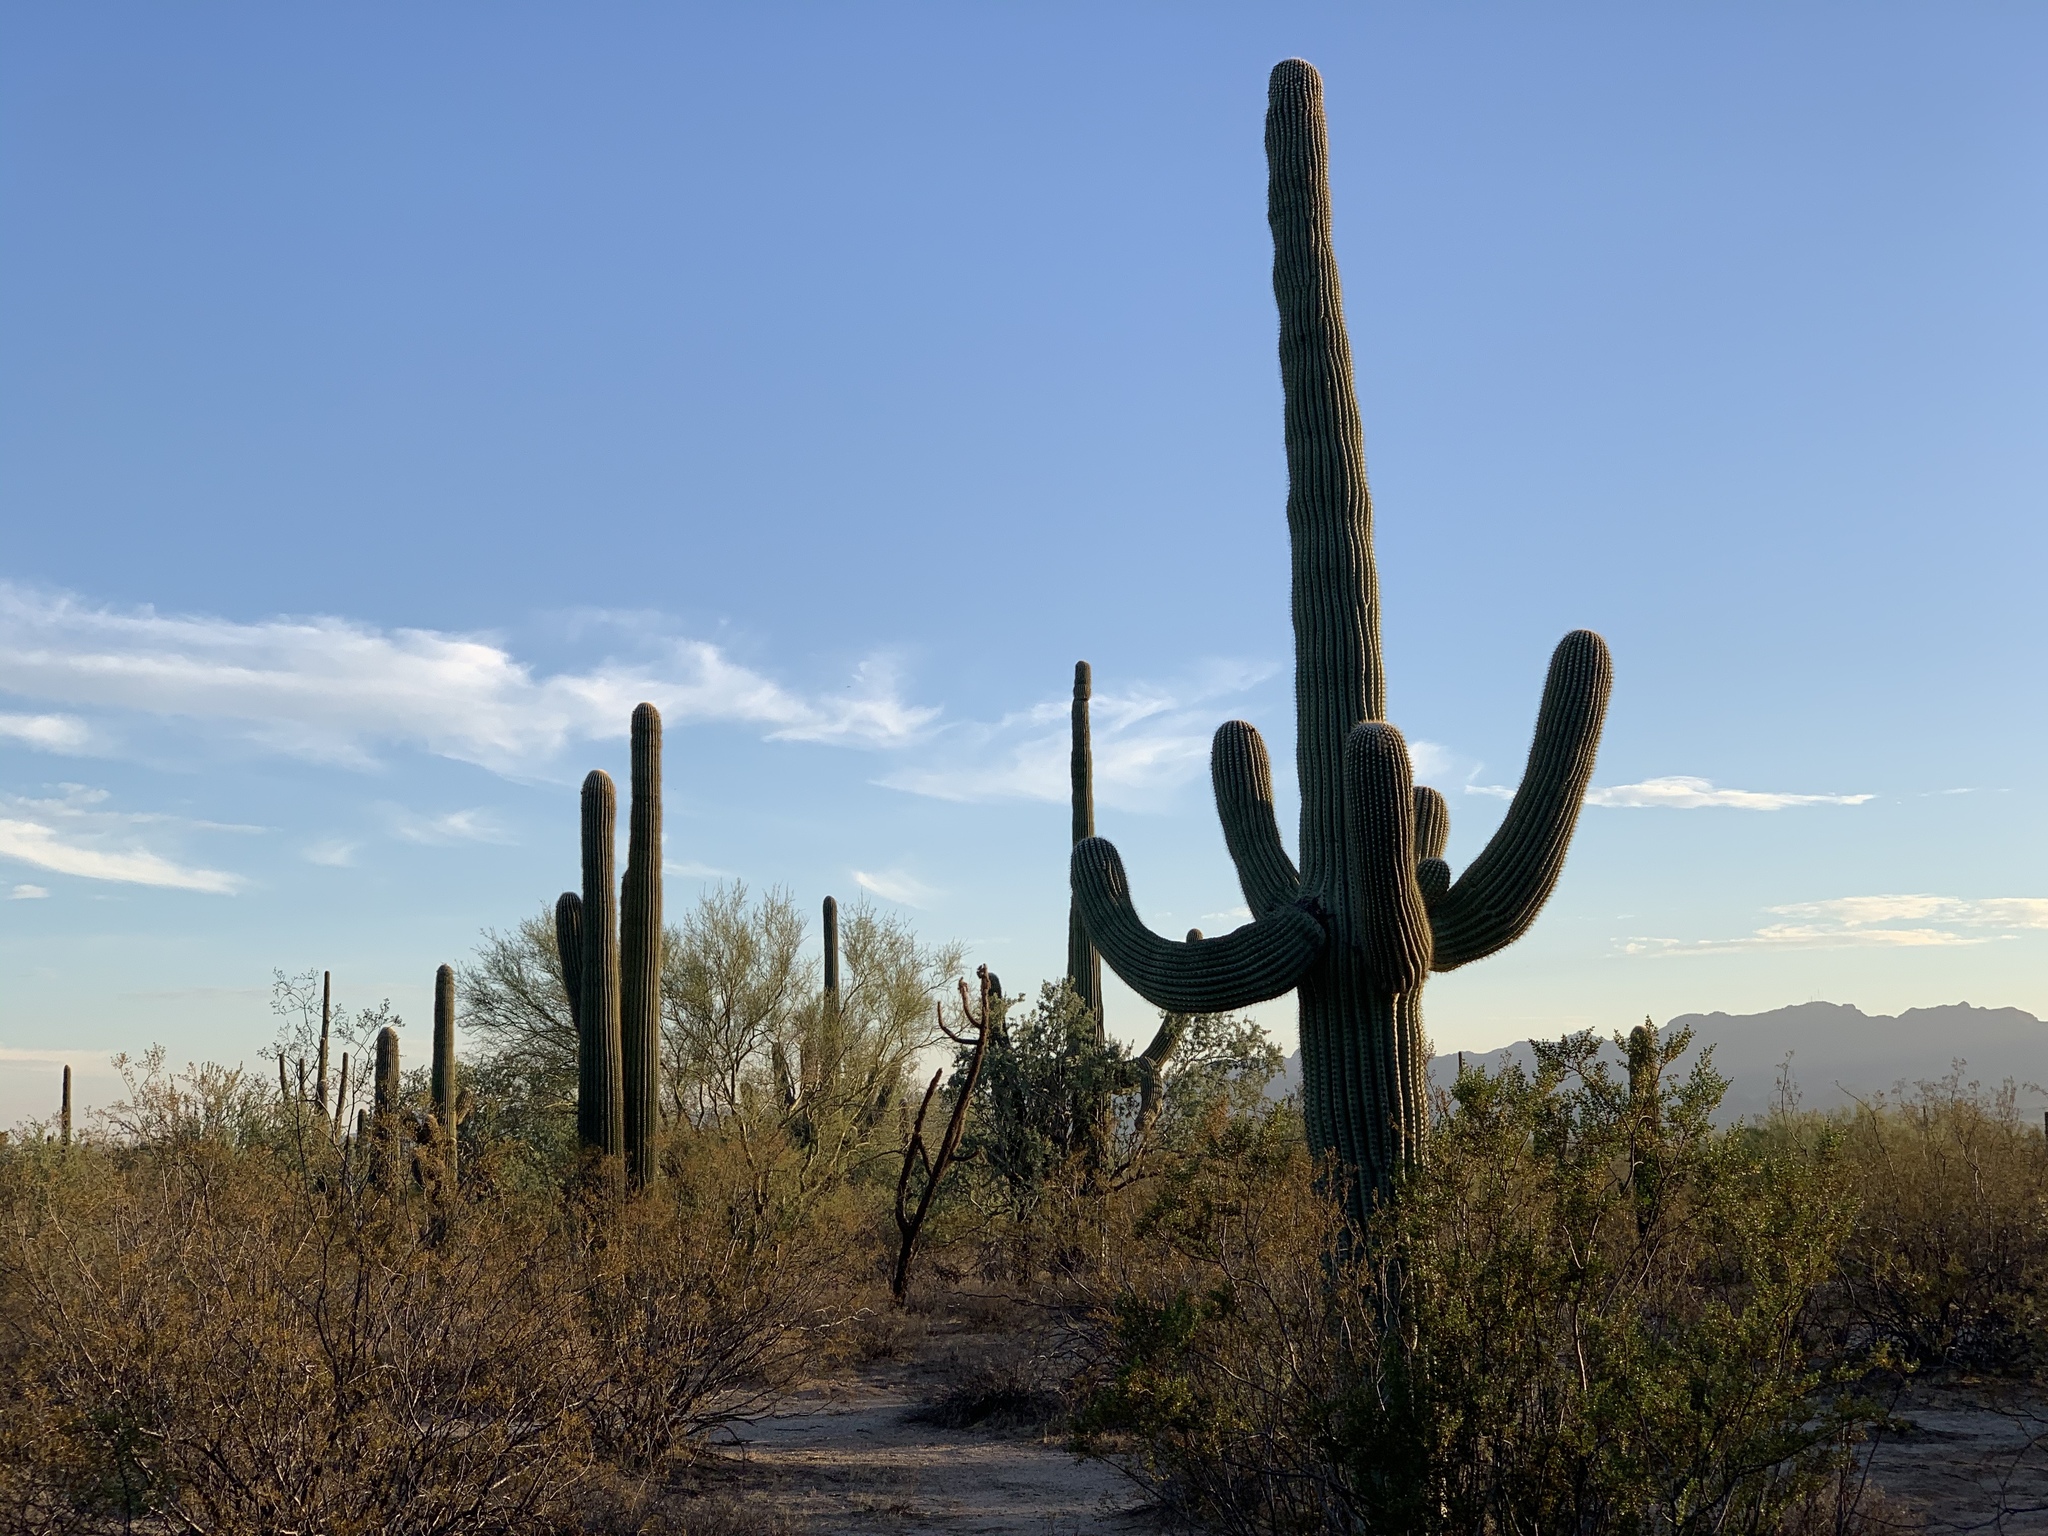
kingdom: Plantae
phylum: Tracheophyta
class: Magnoliopsida
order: Caryophyllales
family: Cactaceae
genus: Carnegiea
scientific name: Carnegiea gigantea
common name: Saguaro
